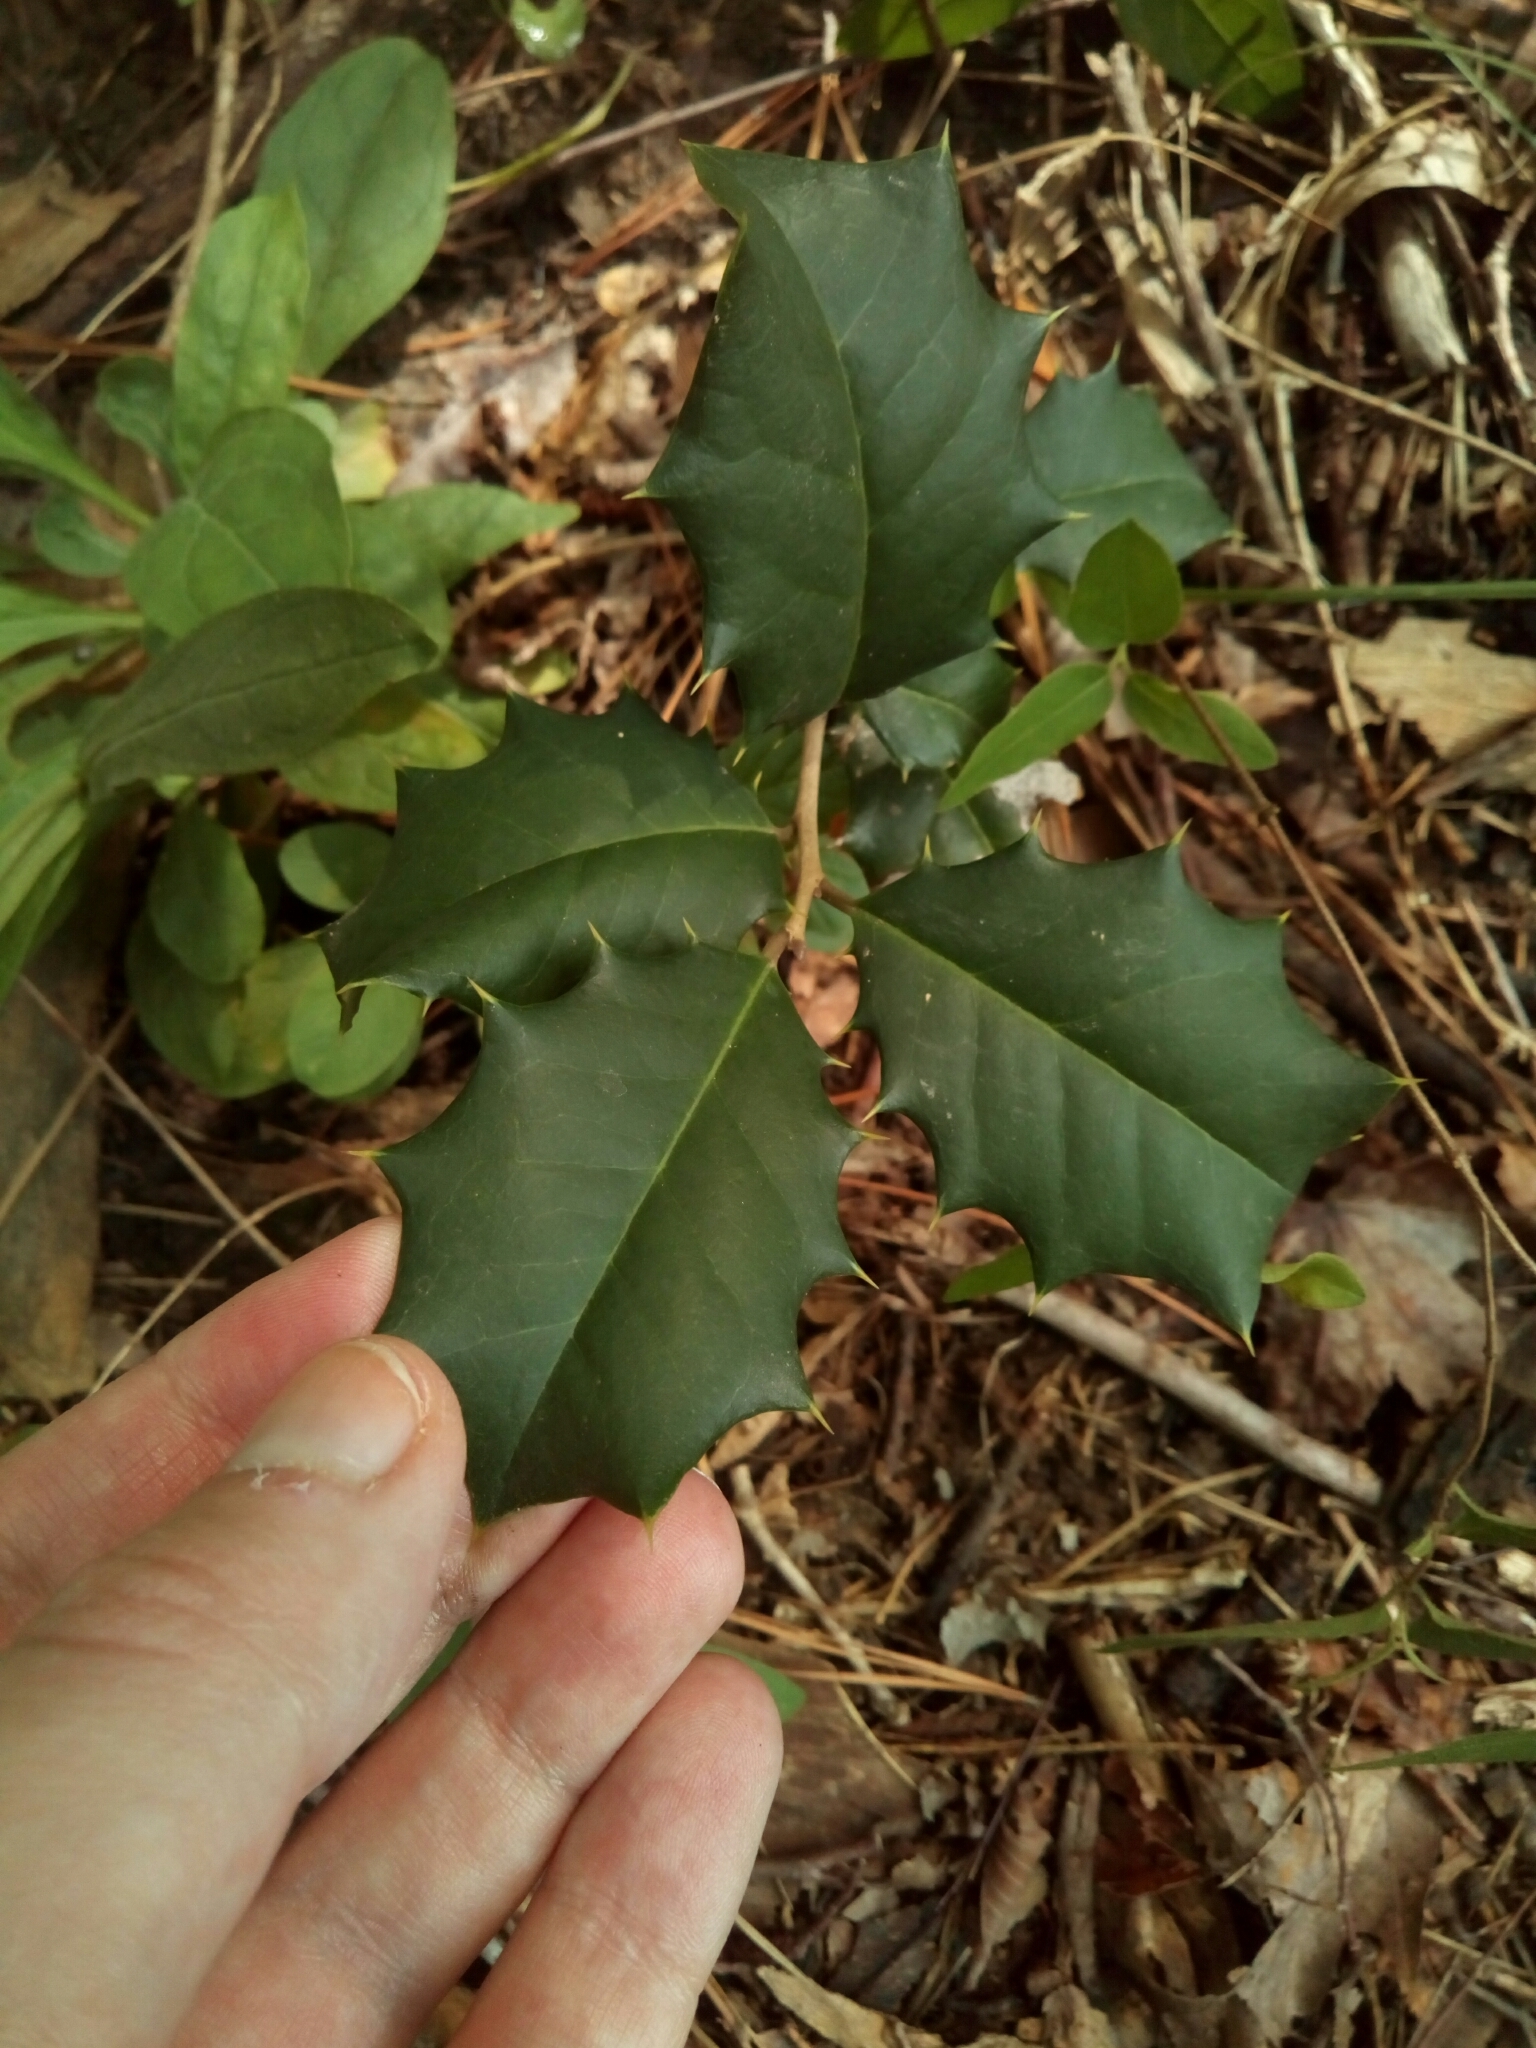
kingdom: Plantae
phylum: Tracheophyta
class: Magnoliopsida
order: Aquifoliales
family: Aquifoliaceae
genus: Ilex
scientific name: Ilex opaca
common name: American holly
